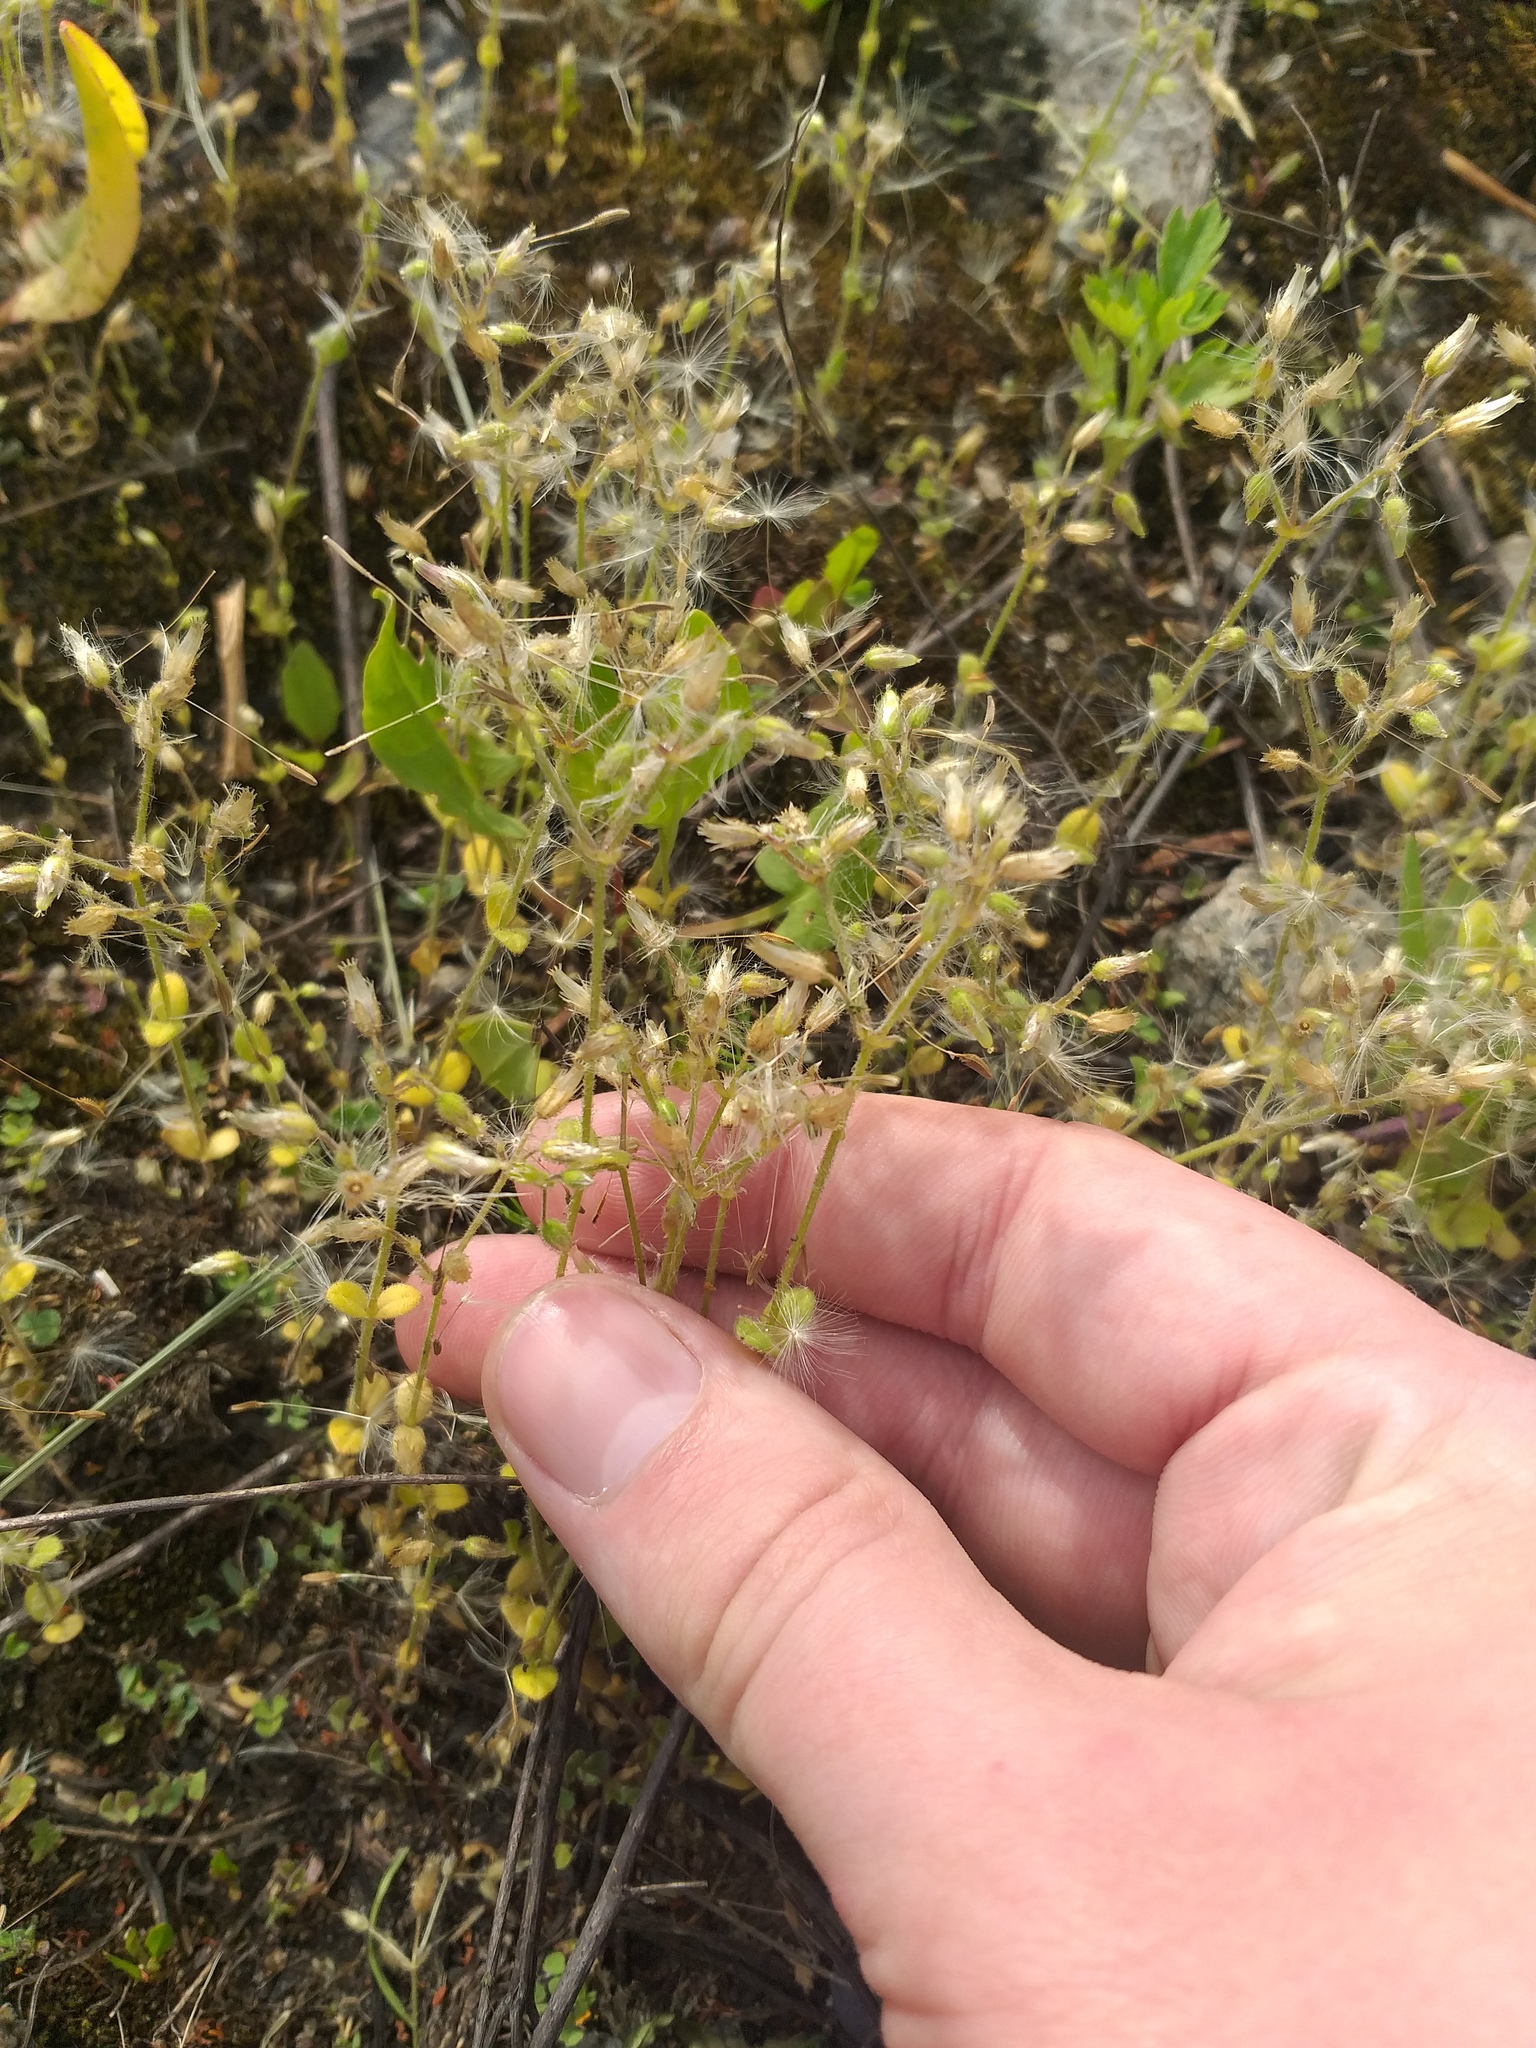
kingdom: Plantae
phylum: Tracheophyta
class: Magnoliopsida
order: Caryophyllales
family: Caryophyllaceae
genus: Cerastium
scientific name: Cerastium semidecandrum
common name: Little mouse-ear
